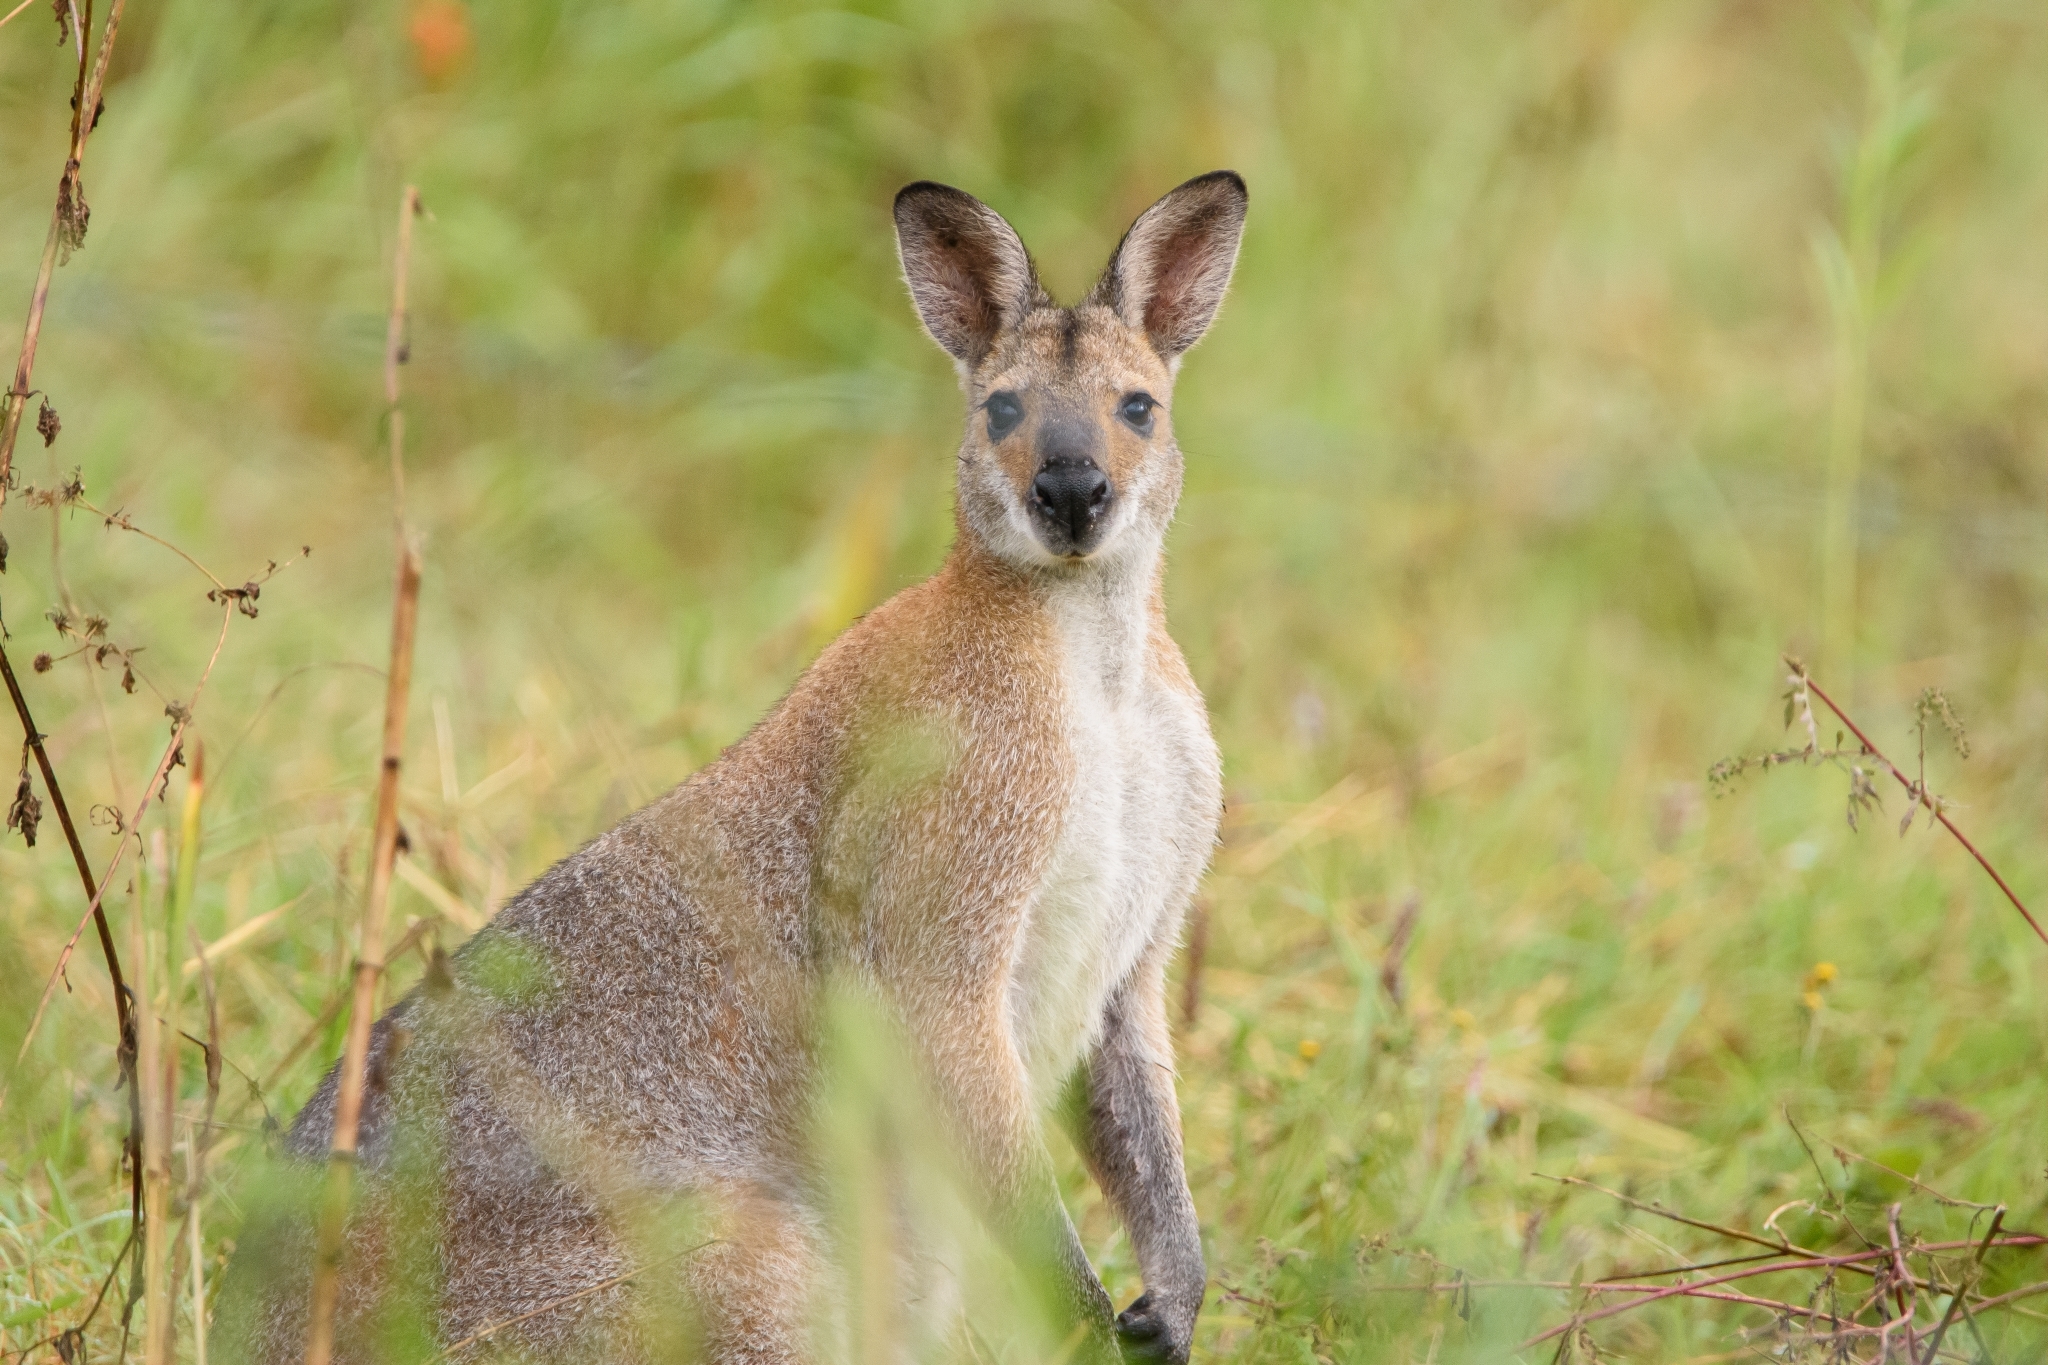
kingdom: Animalia
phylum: Chordata
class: Mammalia
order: Diprotodontia
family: Macropodidae
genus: Notamacropus
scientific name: Notamacropus rufogriseus
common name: Red-necked wallaby
